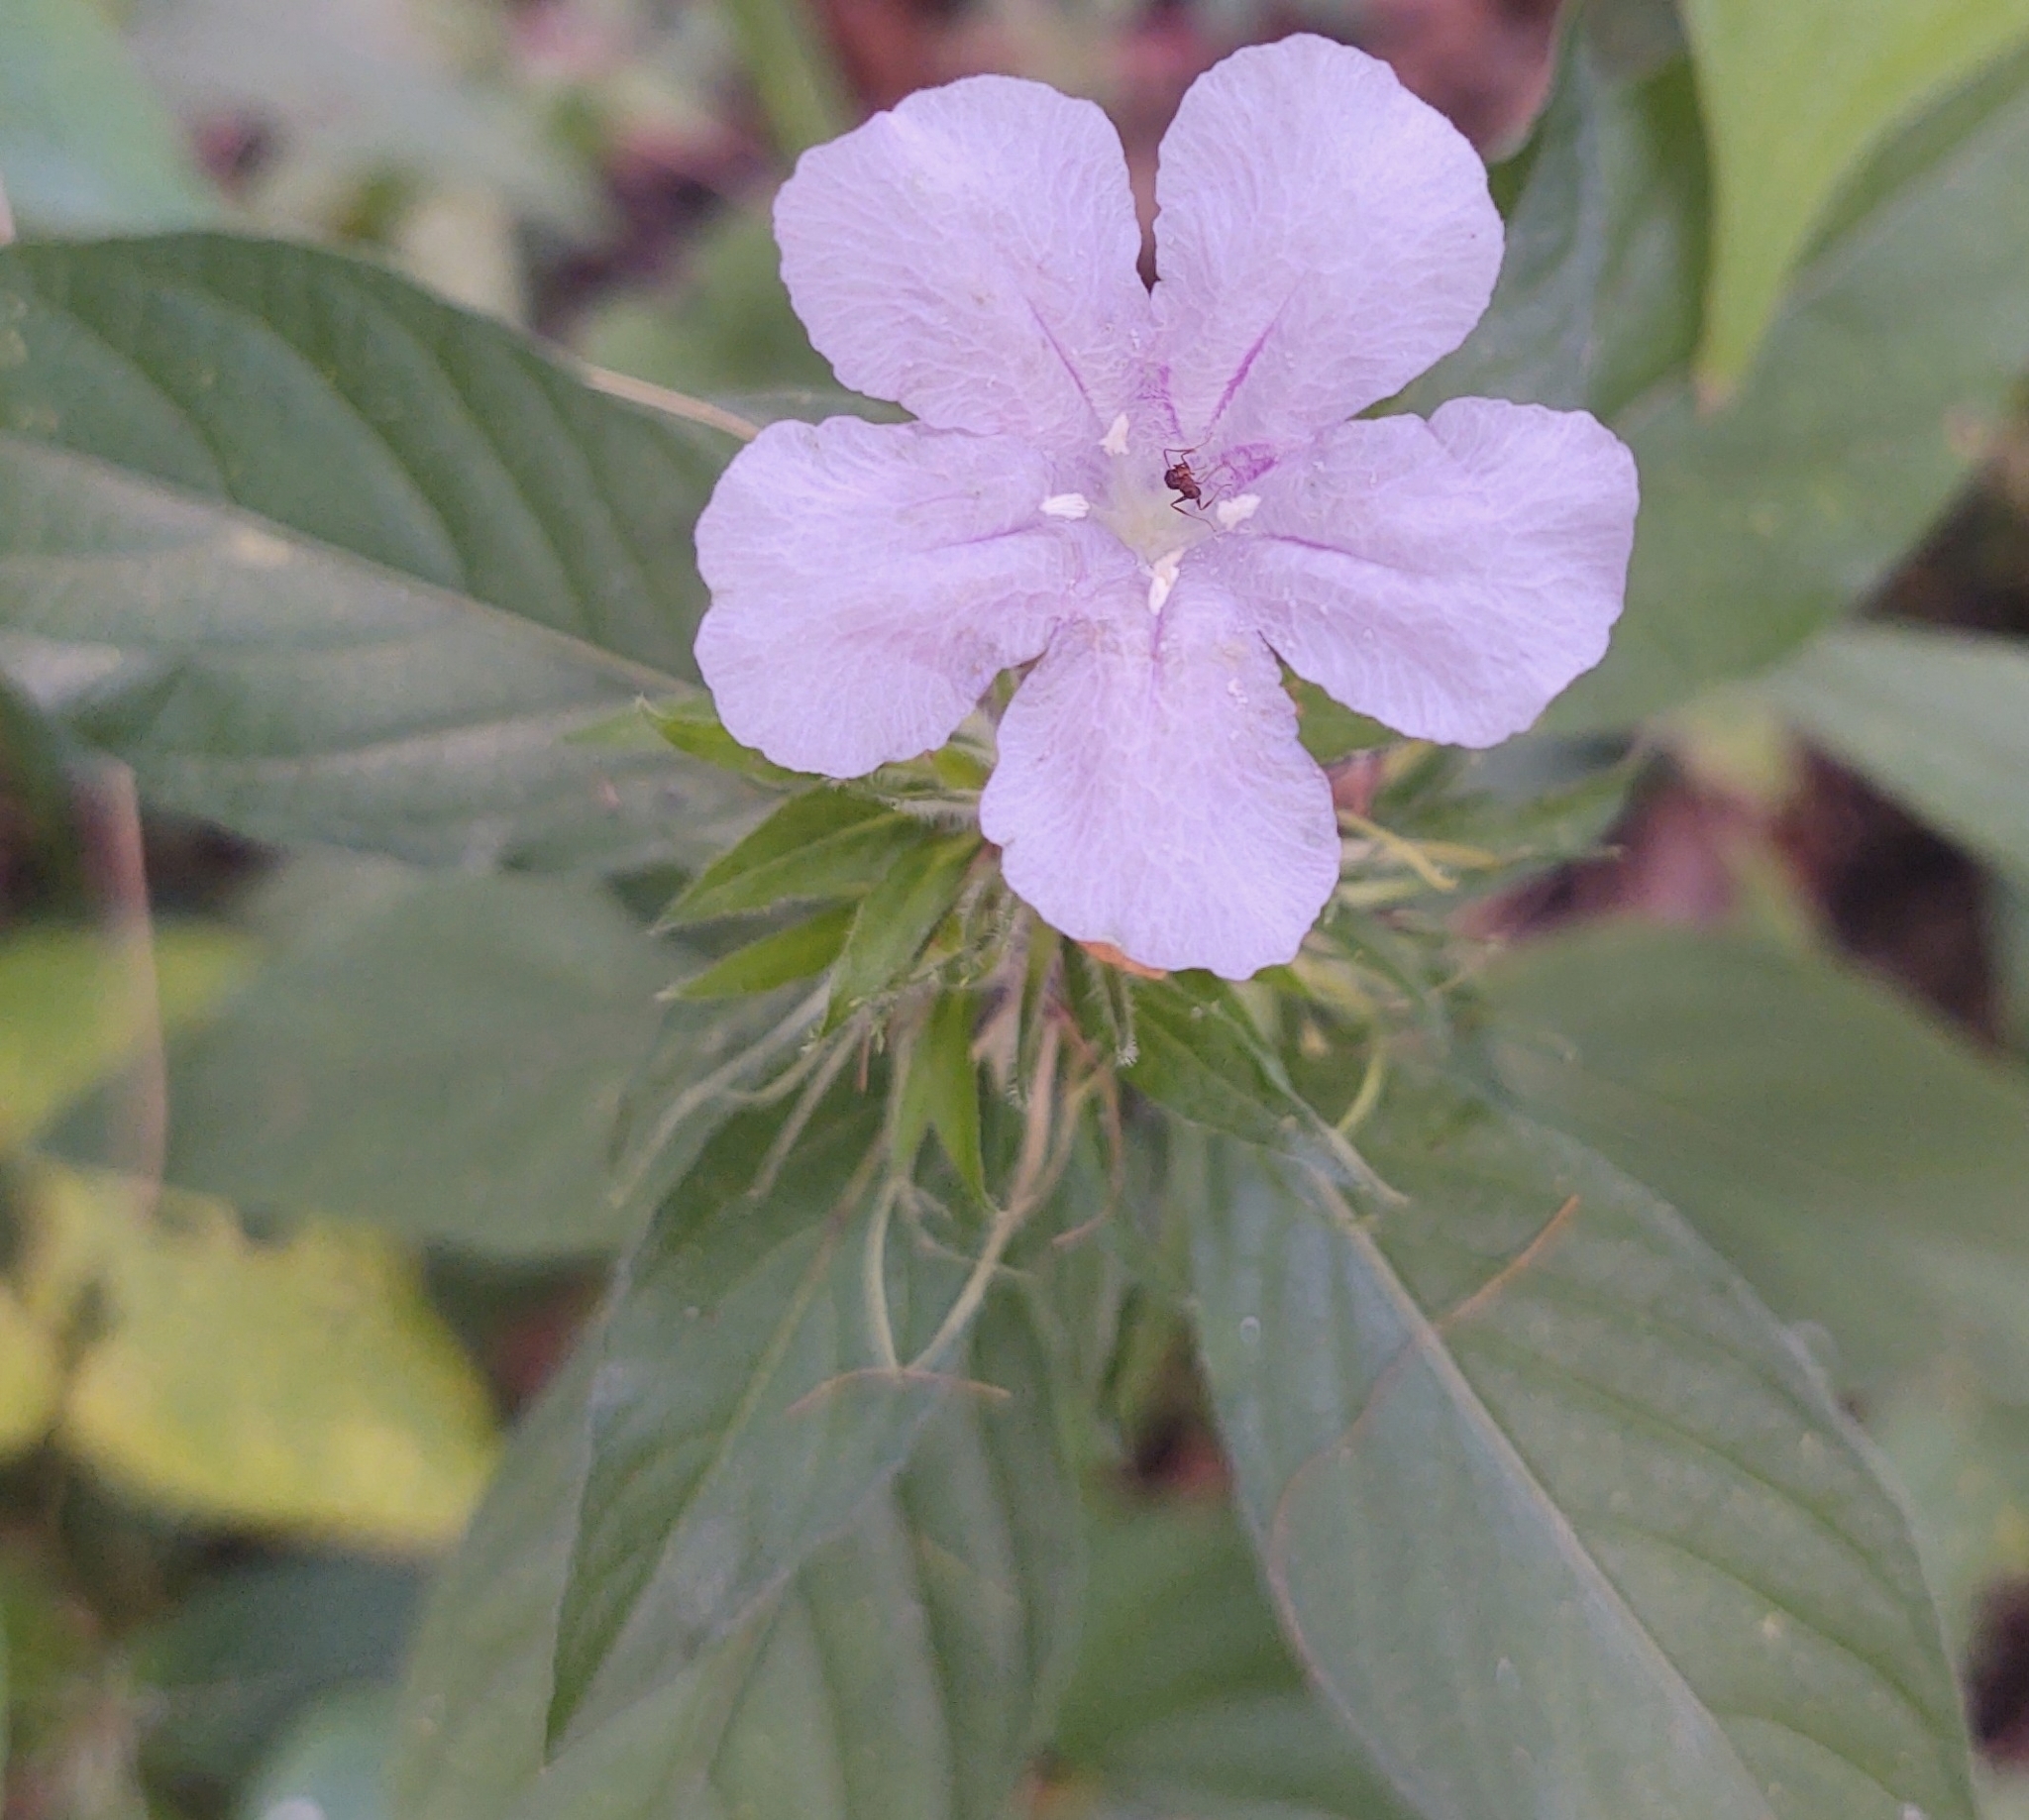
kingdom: Plantae
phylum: Tracheophyta
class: Magnoliopsida
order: Lamiales
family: Acanthaceae
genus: Ruellia
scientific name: Ruellia caroliniensis
